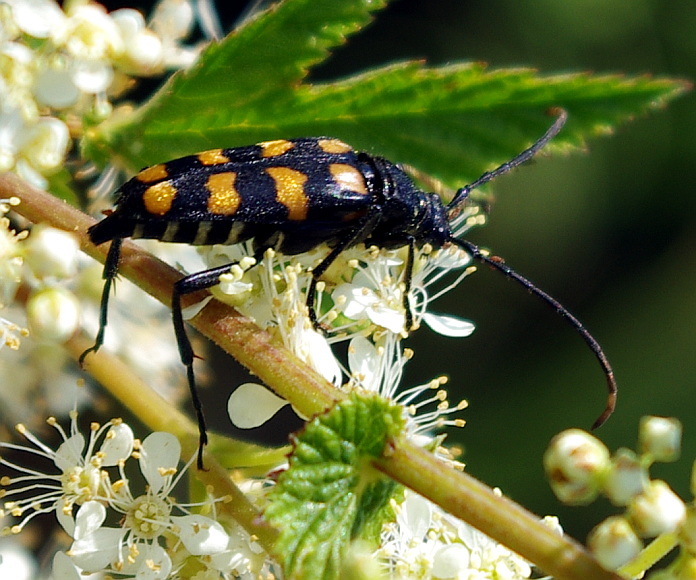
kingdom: Animalia
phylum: Arthropoda
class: Insecta
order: Coleoptera
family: Cerambycidae
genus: Leptura
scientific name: Leptura quadrifasciata
